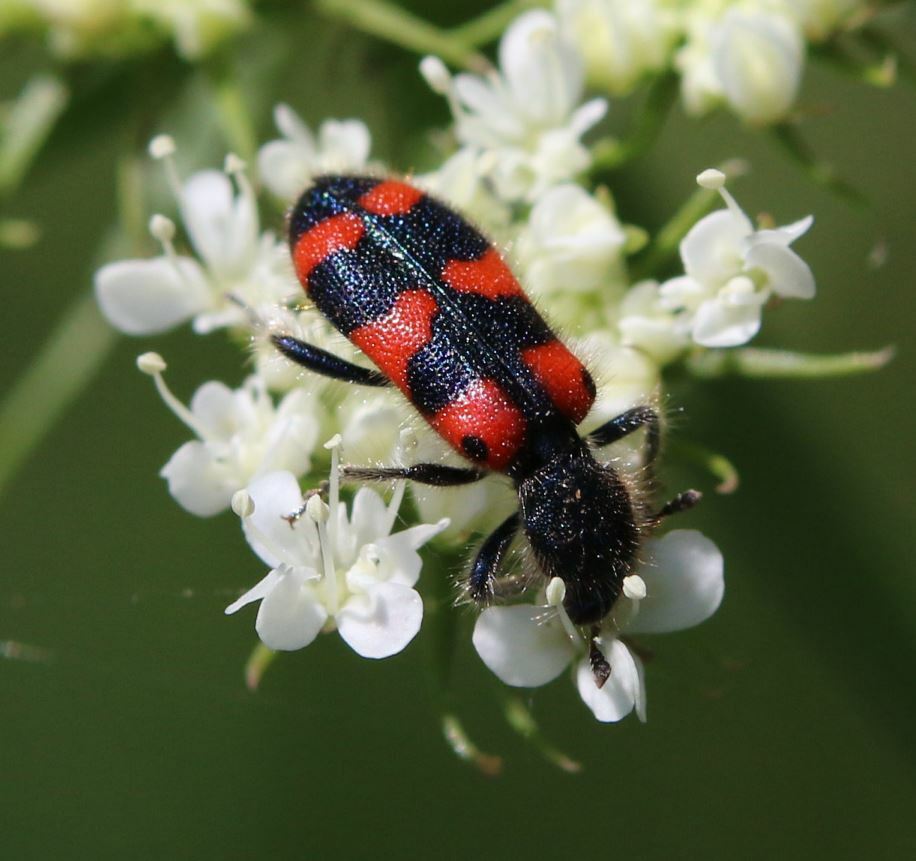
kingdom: Animalia
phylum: Arthropoda
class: Insecta
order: Coleoptera
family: Cleridae
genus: Trichodes
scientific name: Trichodes leucopsideus
